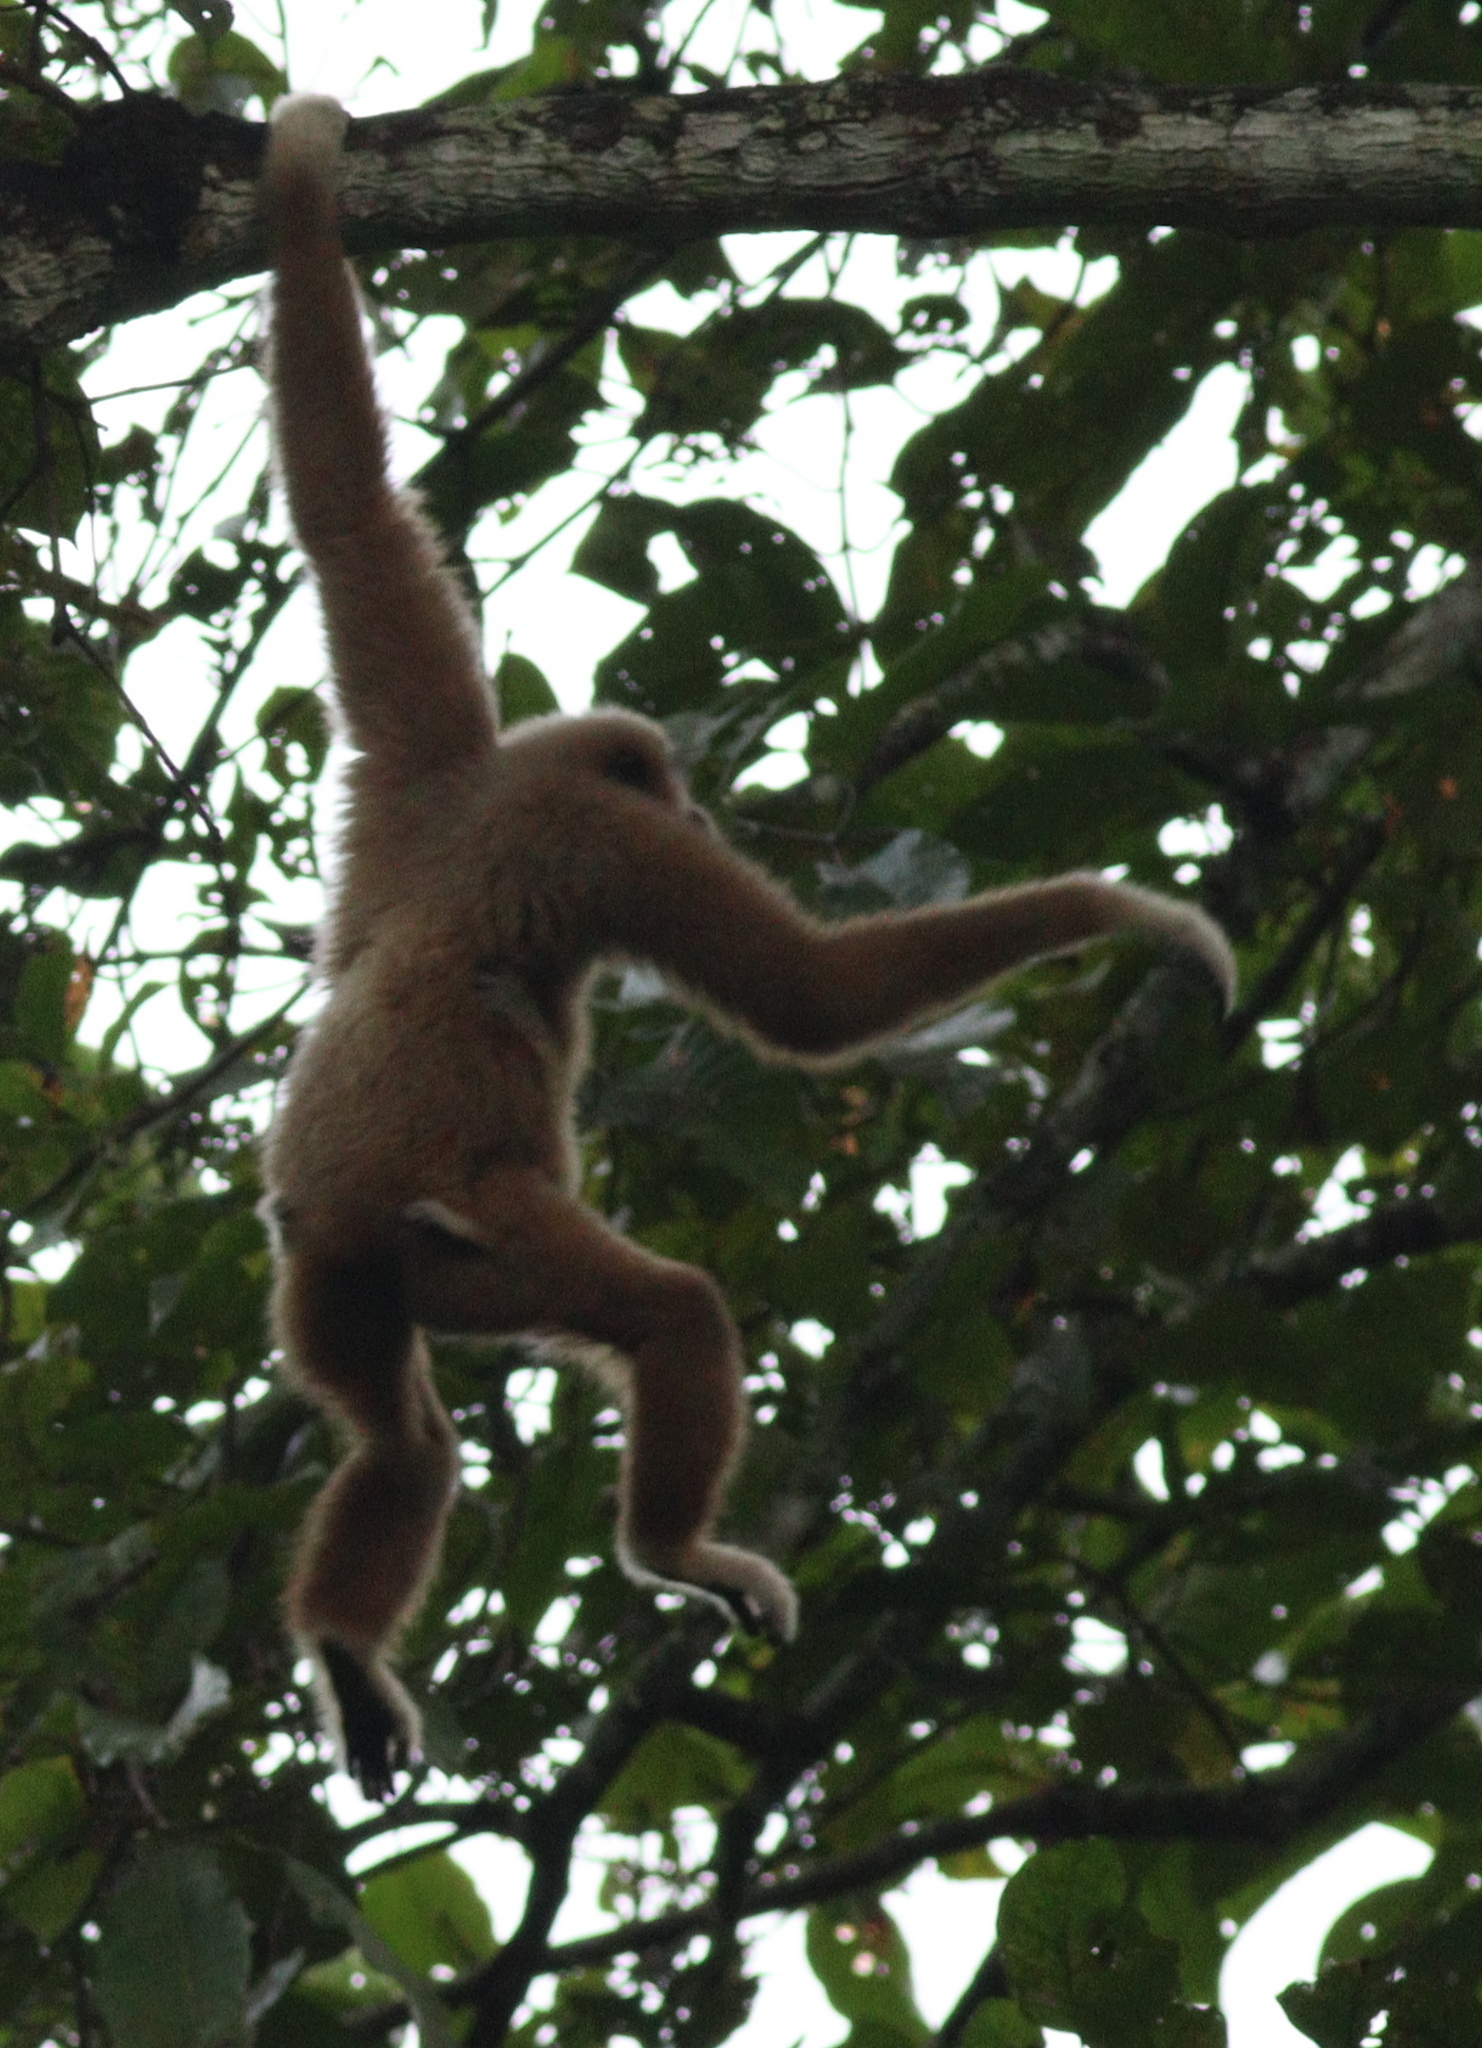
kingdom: Animalia
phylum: Chordata
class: Mammalia
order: Primates
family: Hylobatidae
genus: Hylobates
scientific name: Hylobates lar
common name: Lar gibbon
